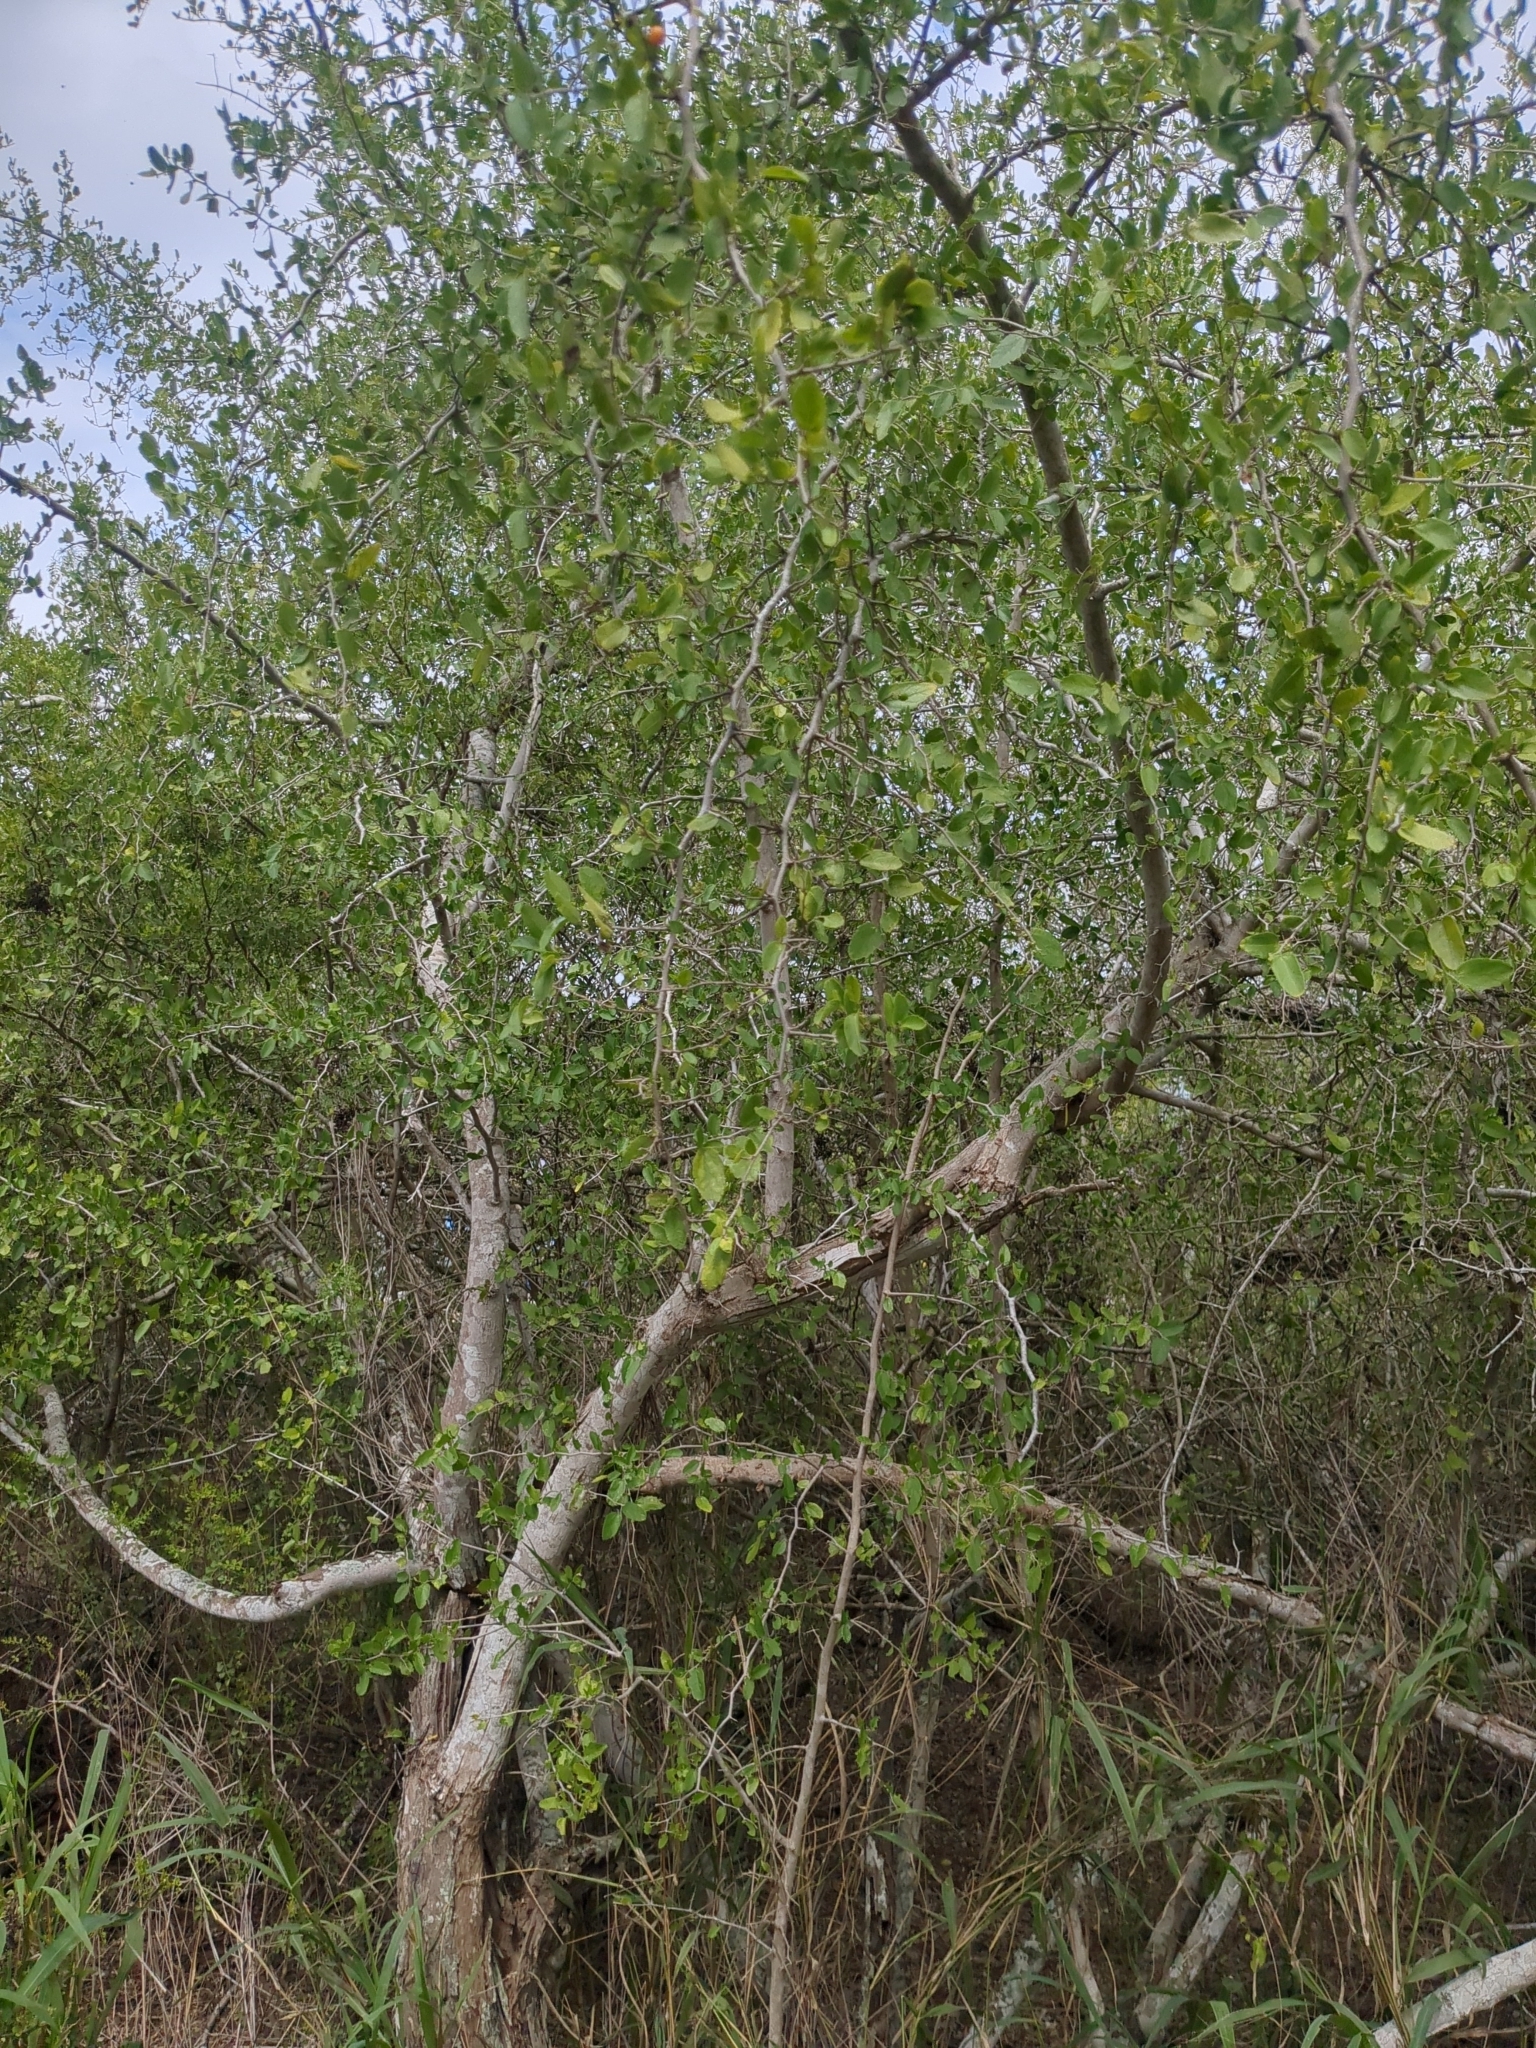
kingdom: Plantae
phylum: Tracheophyta
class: Magnoliopsida
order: Rosales
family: Cannabaceae
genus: Celtis
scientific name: Celtis pallida
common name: Desert hackberry
